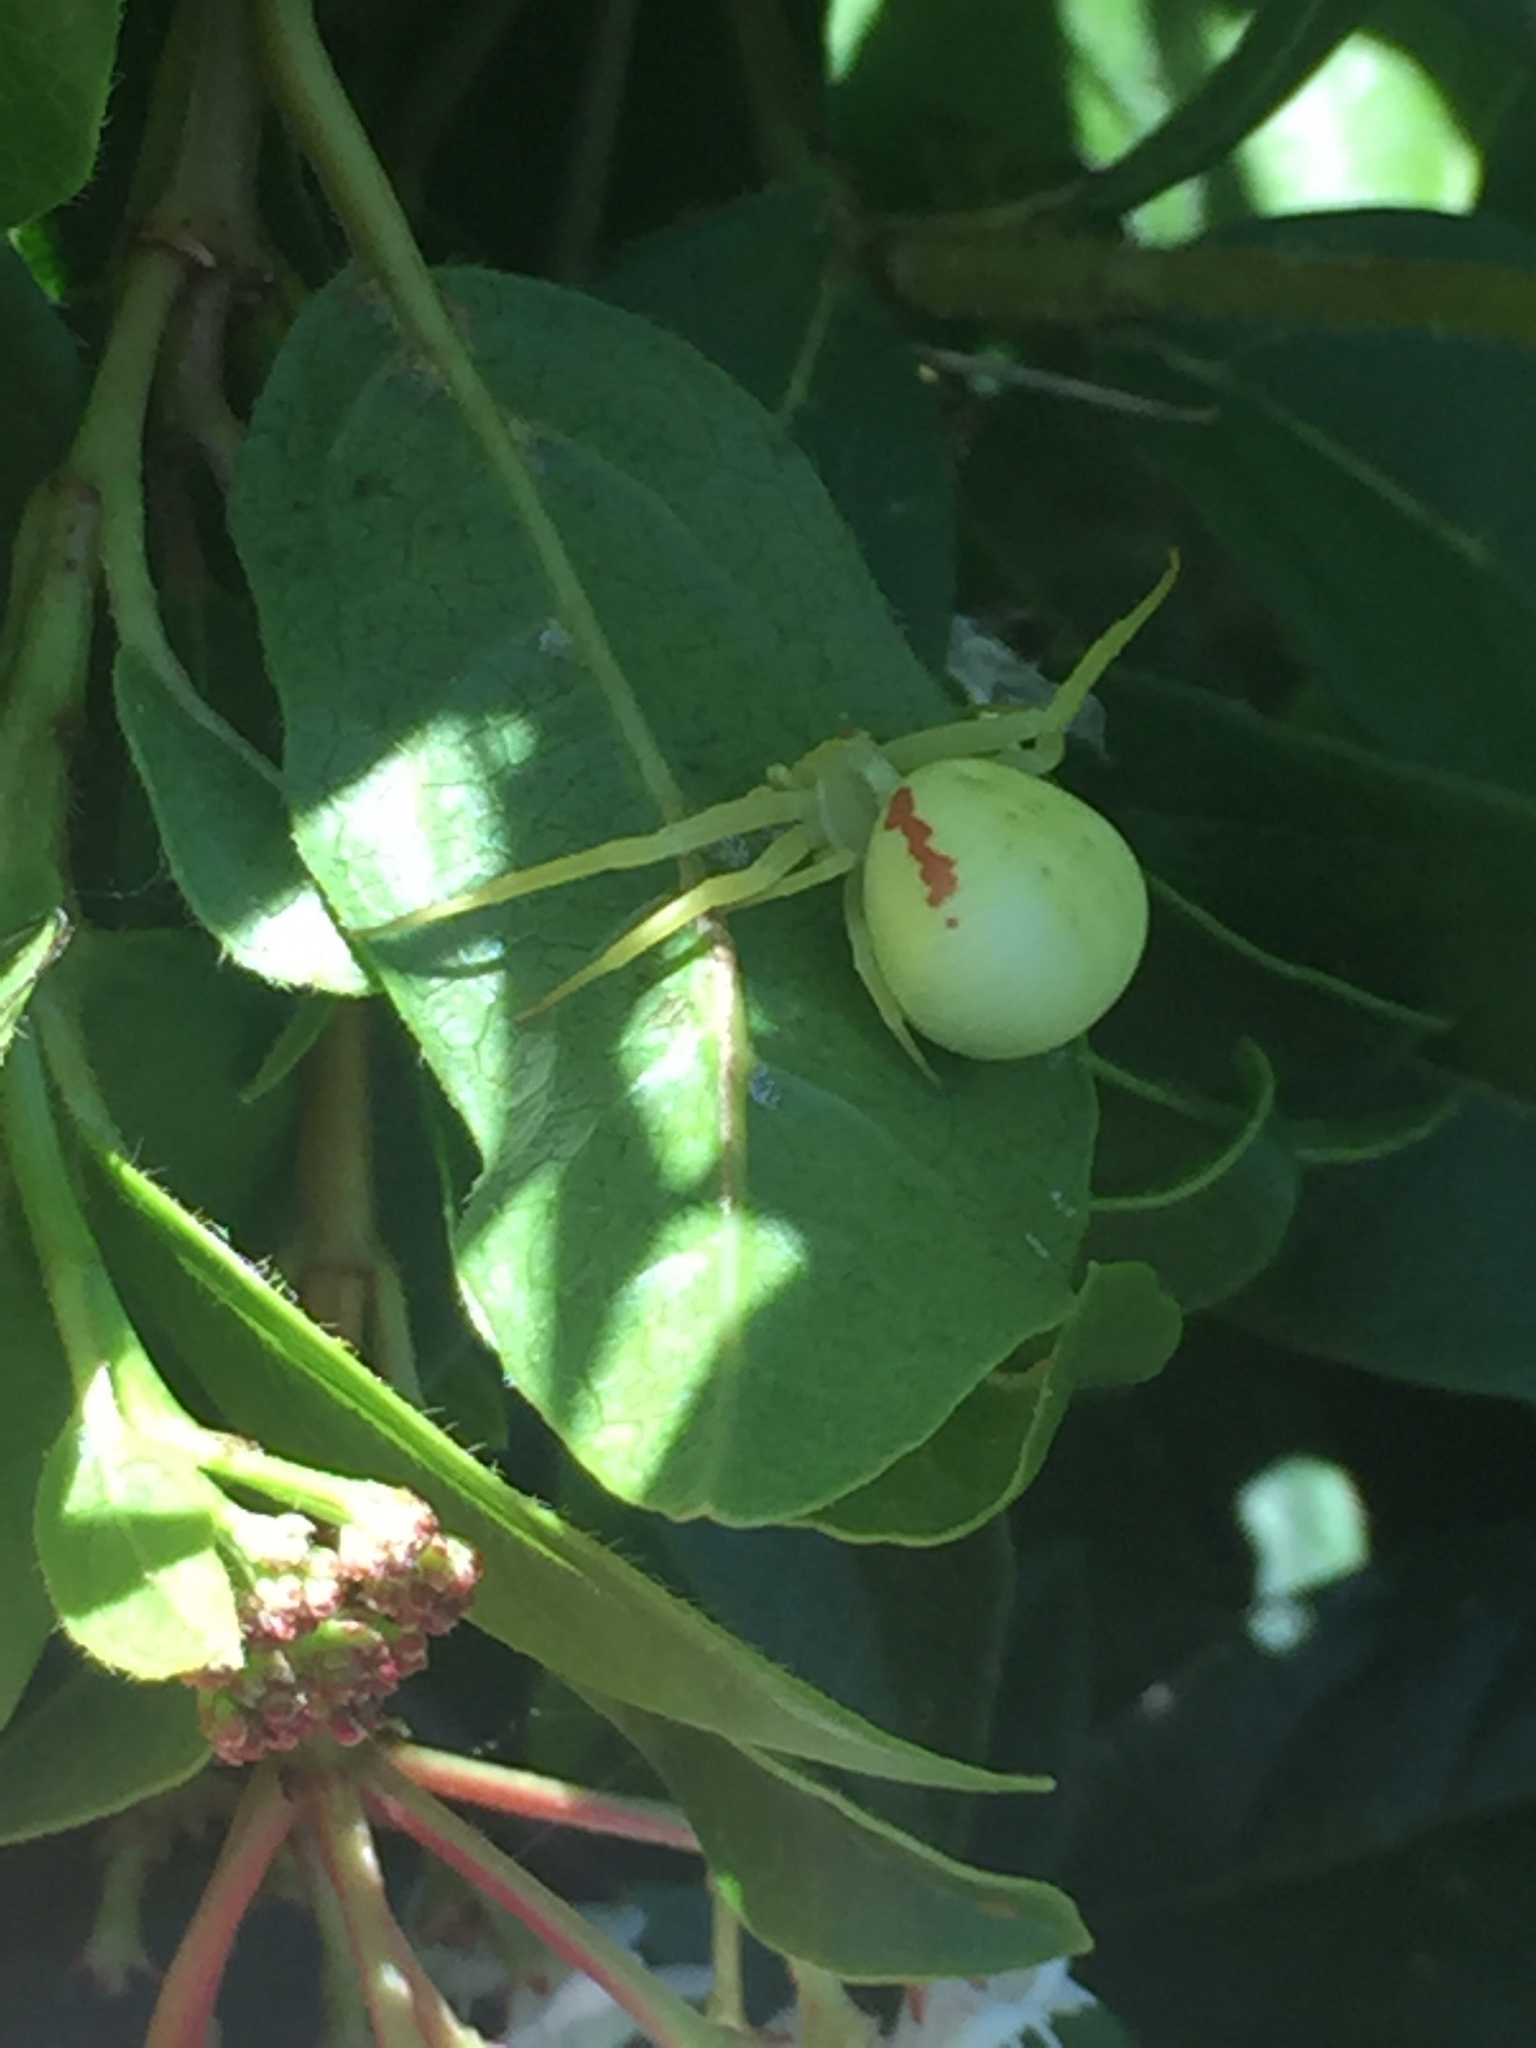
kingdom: Animalia
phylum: Arthropoda
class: Arachnida
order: Araneae
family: Thomisidae
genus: Misumena
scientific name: Misumena vatia
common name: Goldenrod crab spider
